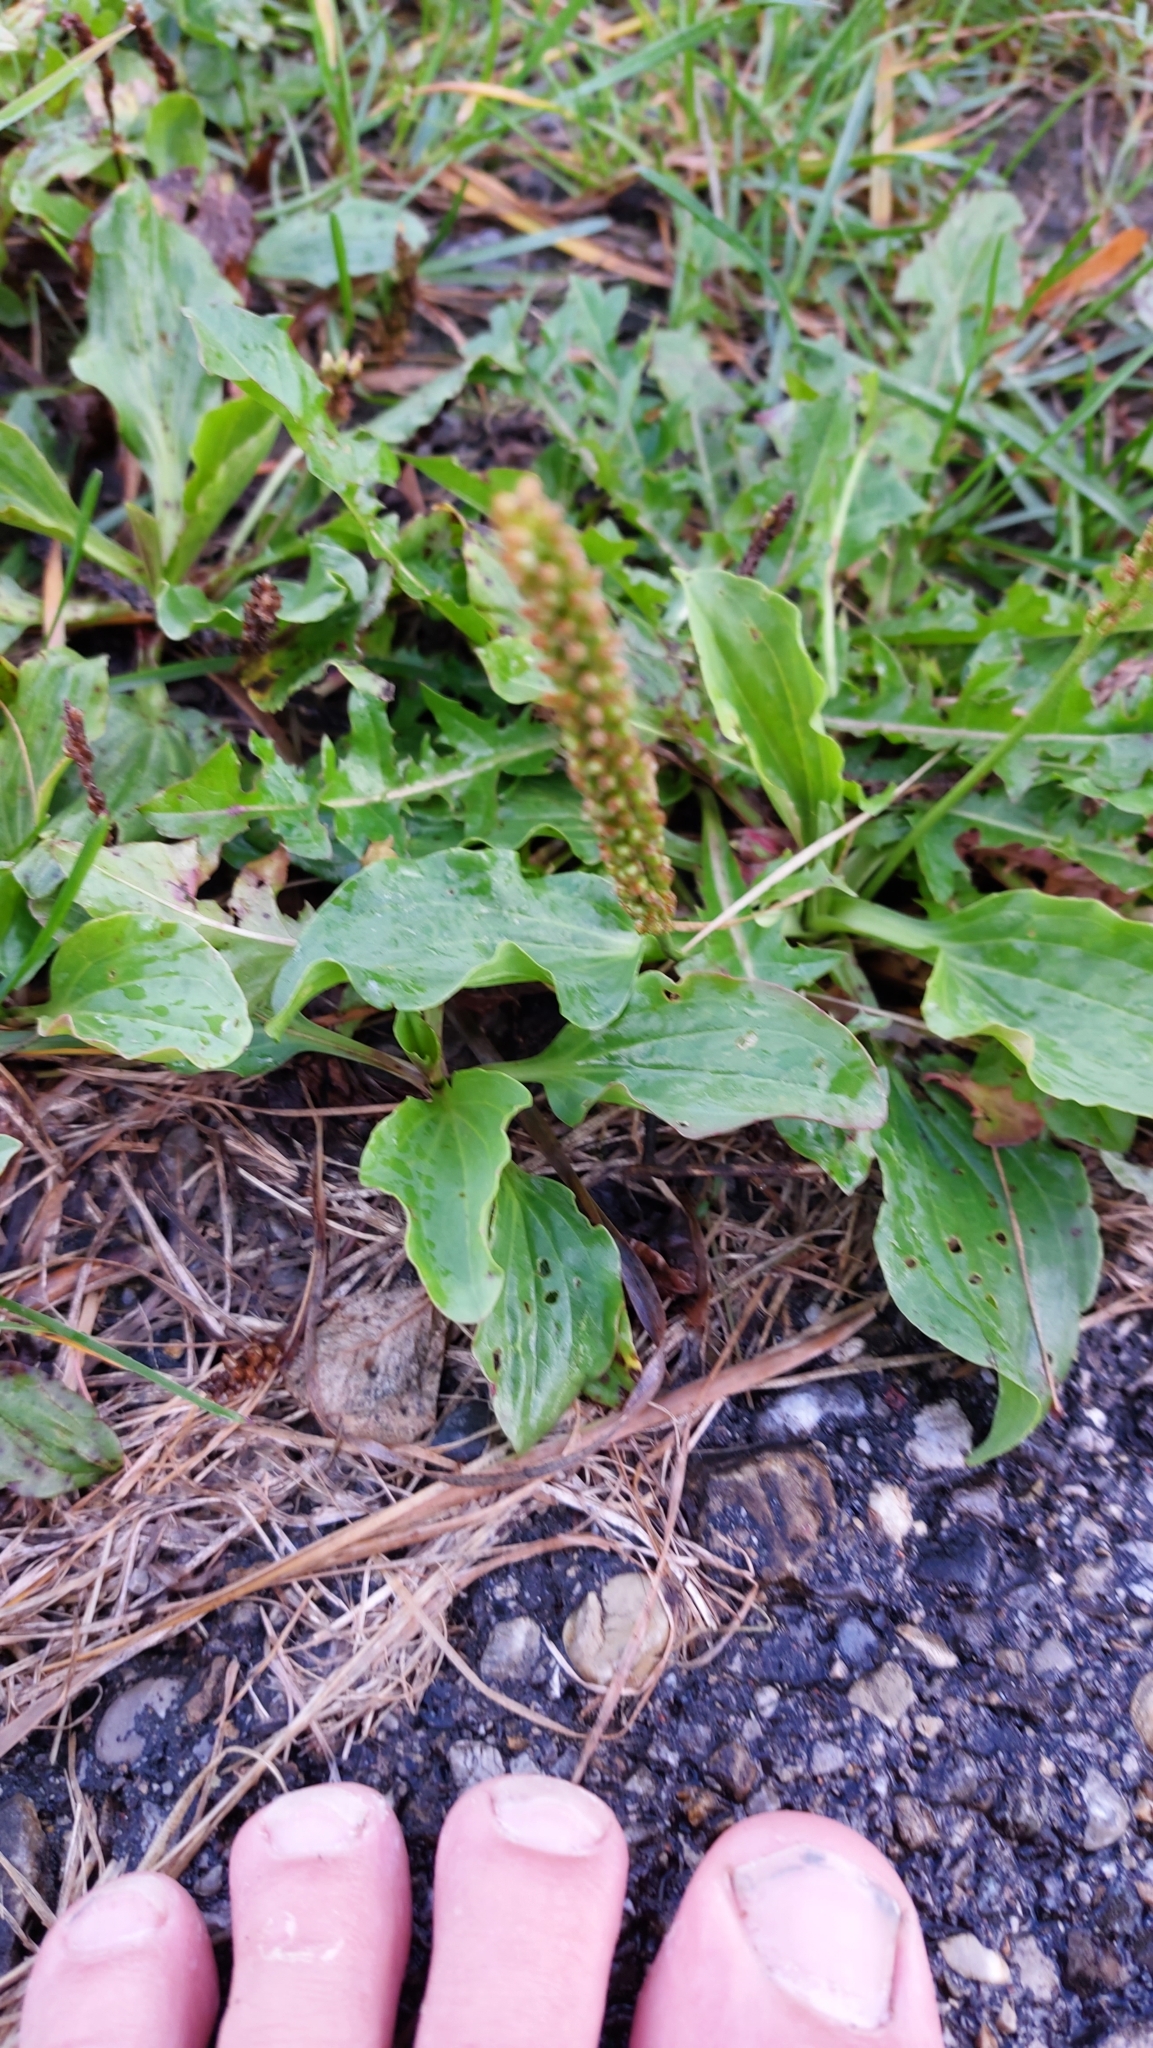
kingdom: Plantae
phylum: Tracheophyta
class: Magnoliopsida
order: Lamiales
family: Plantaginaceae
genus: Plantago
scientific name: Plantago major
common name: Common plantain
